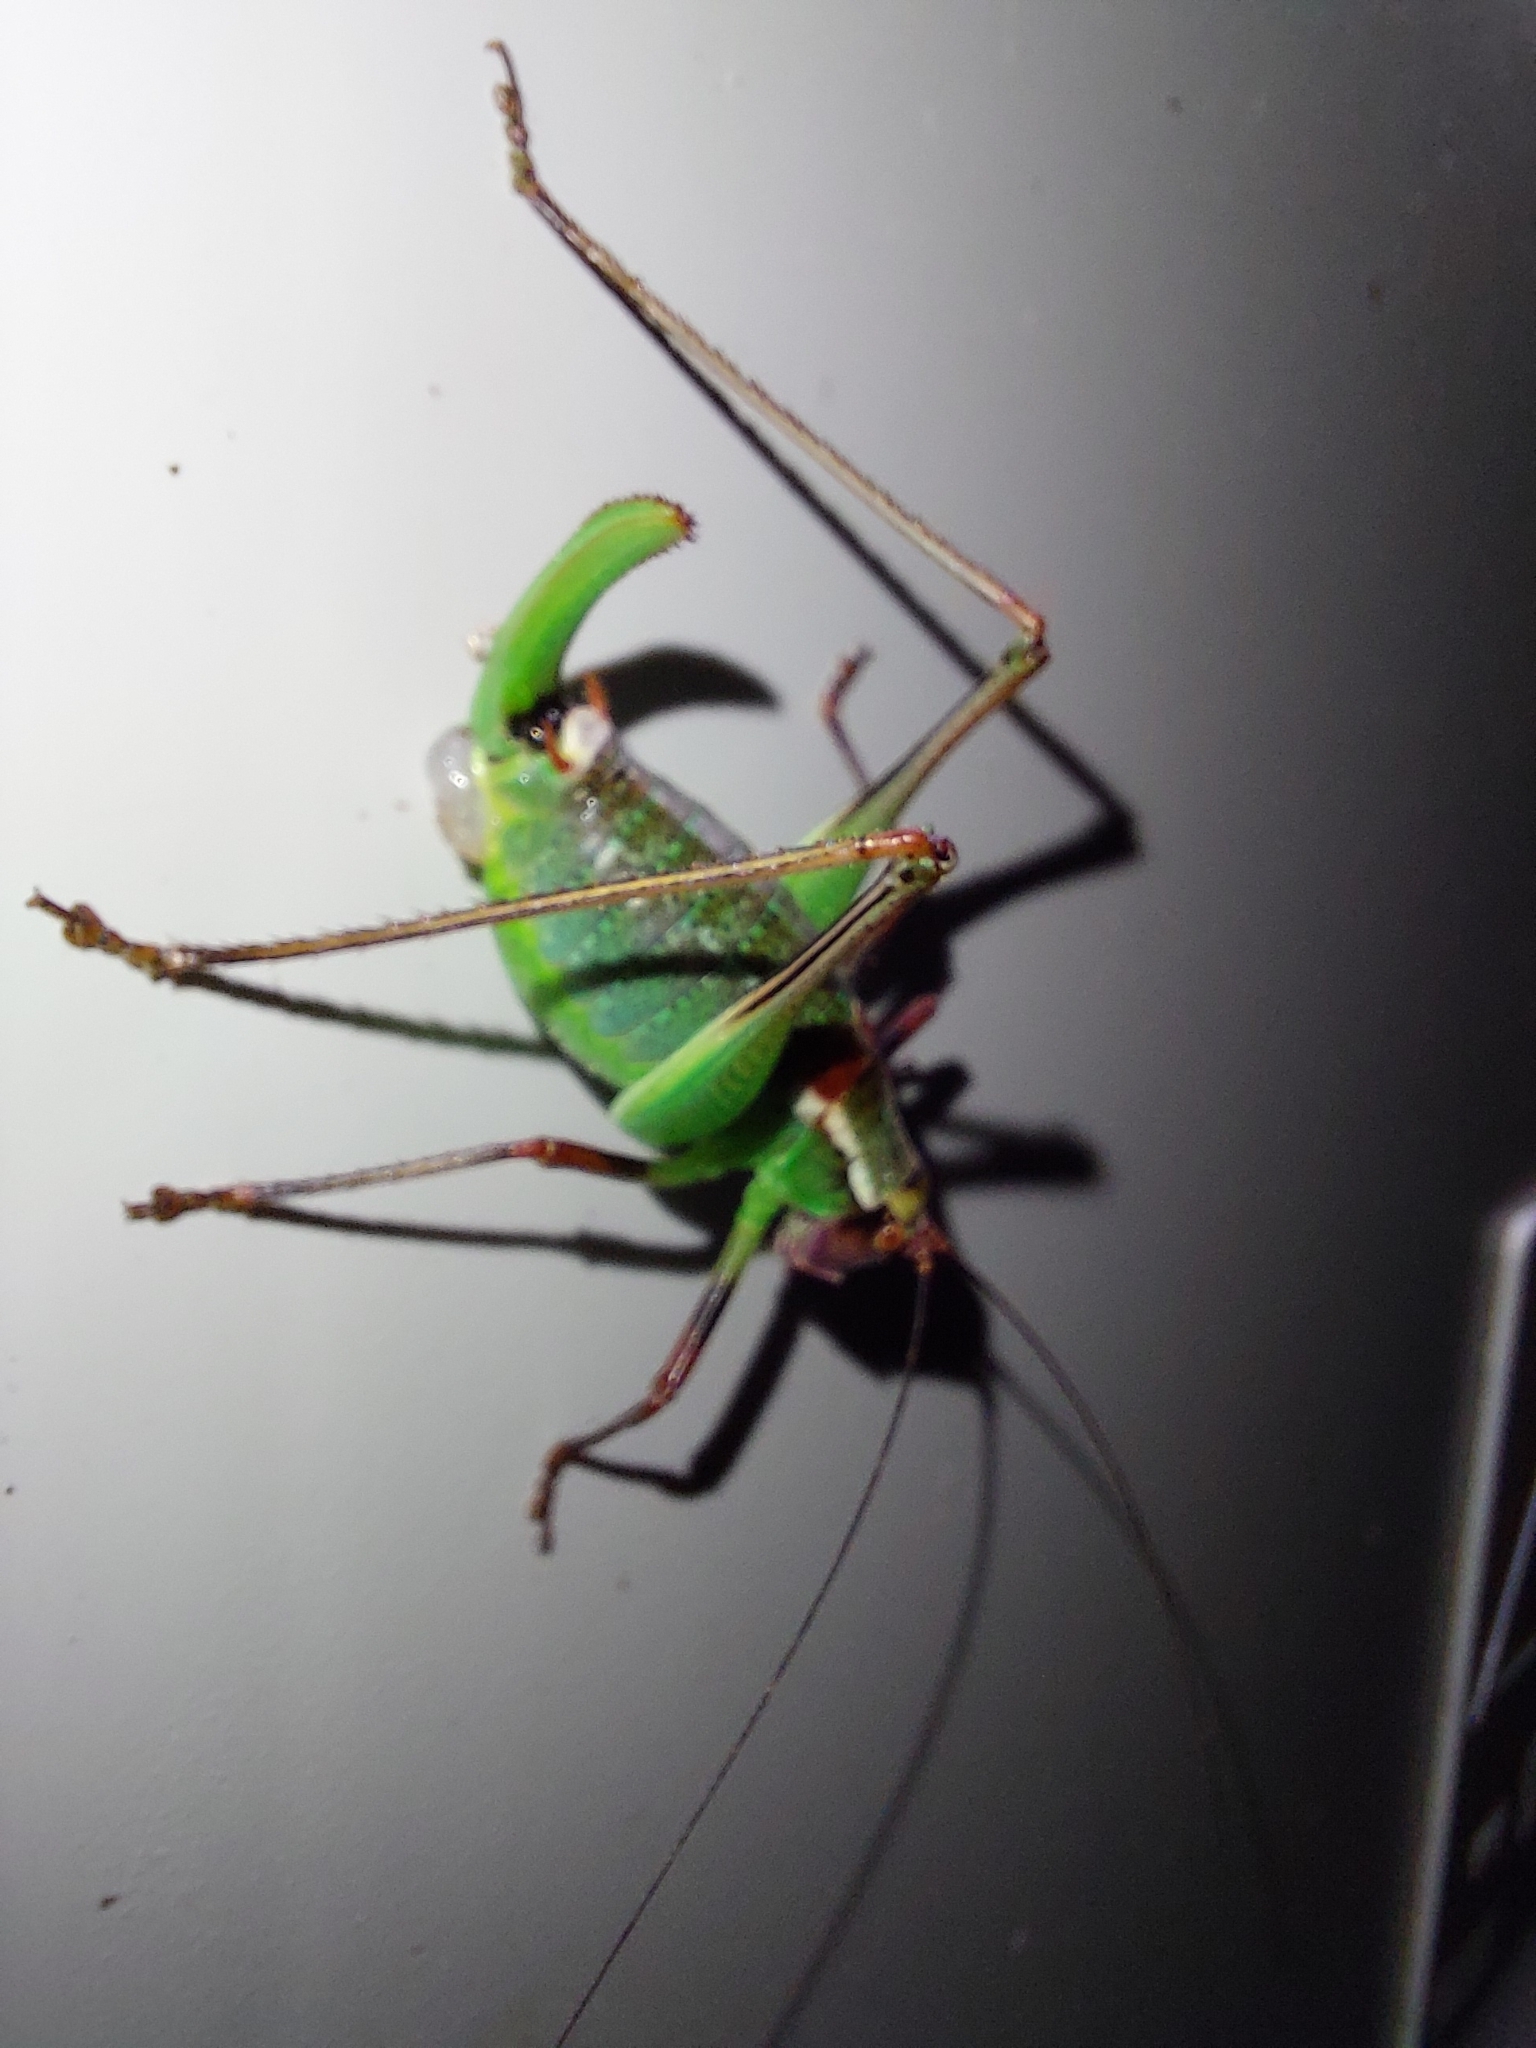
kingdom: Animalia
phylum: Arthropoda
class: Insecta
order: Orthoptera
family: Tettigoniidae
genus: Barbitistes
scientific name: Barbitistes ocskayi
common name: Black saw bush-cricket
